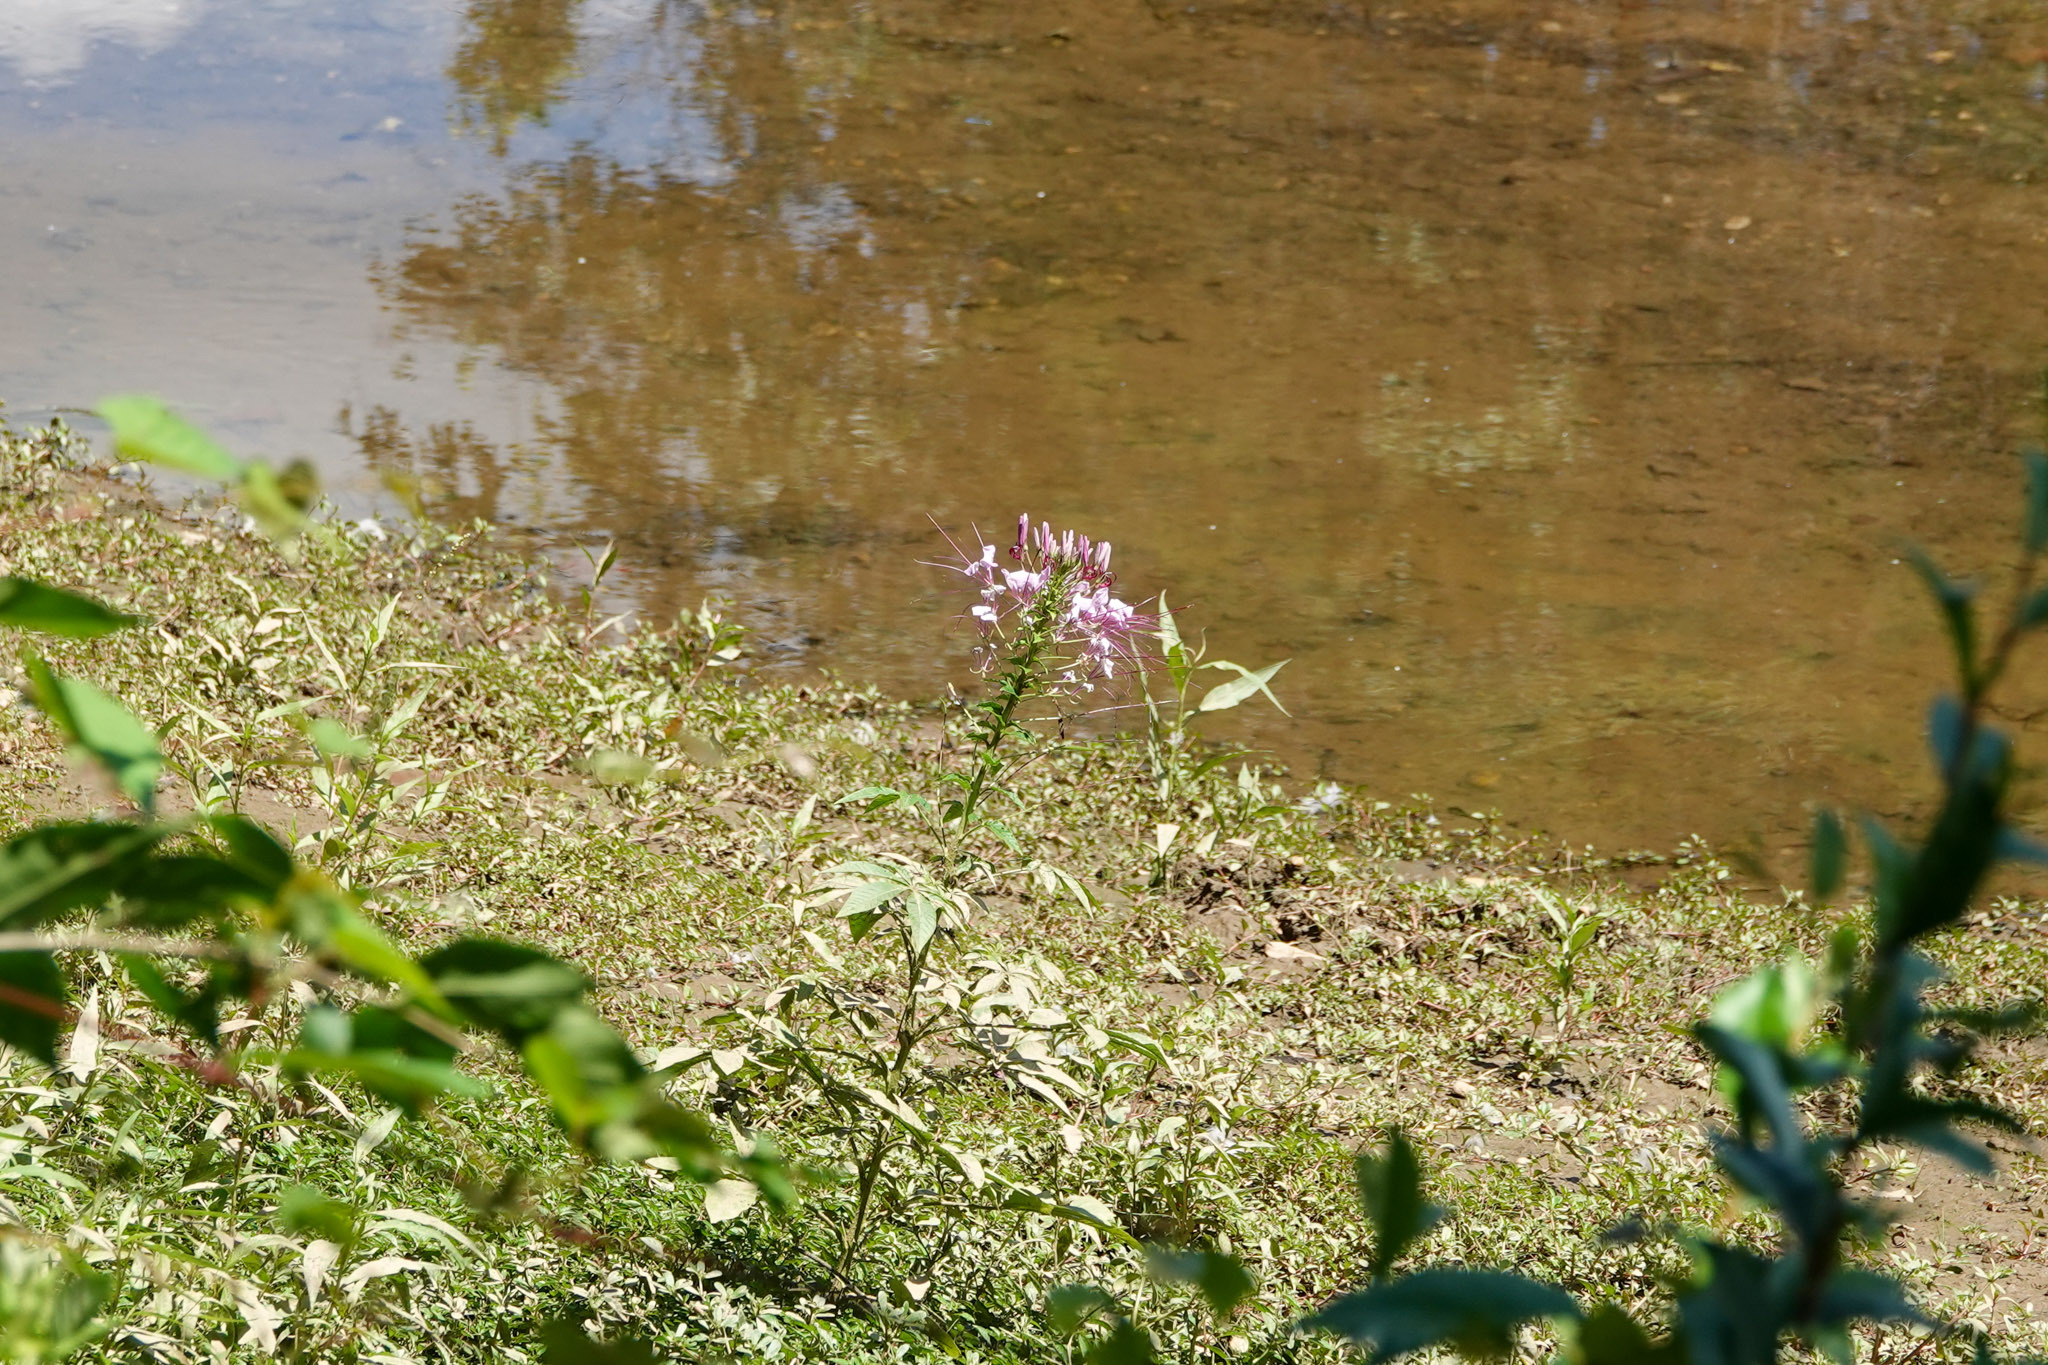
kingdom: Plantae
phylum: Tracheophyta
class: Magnoliopsida
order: Brassicales
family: Cleomaceae
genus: Tarenaya
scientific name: Tarenaya houtteana
